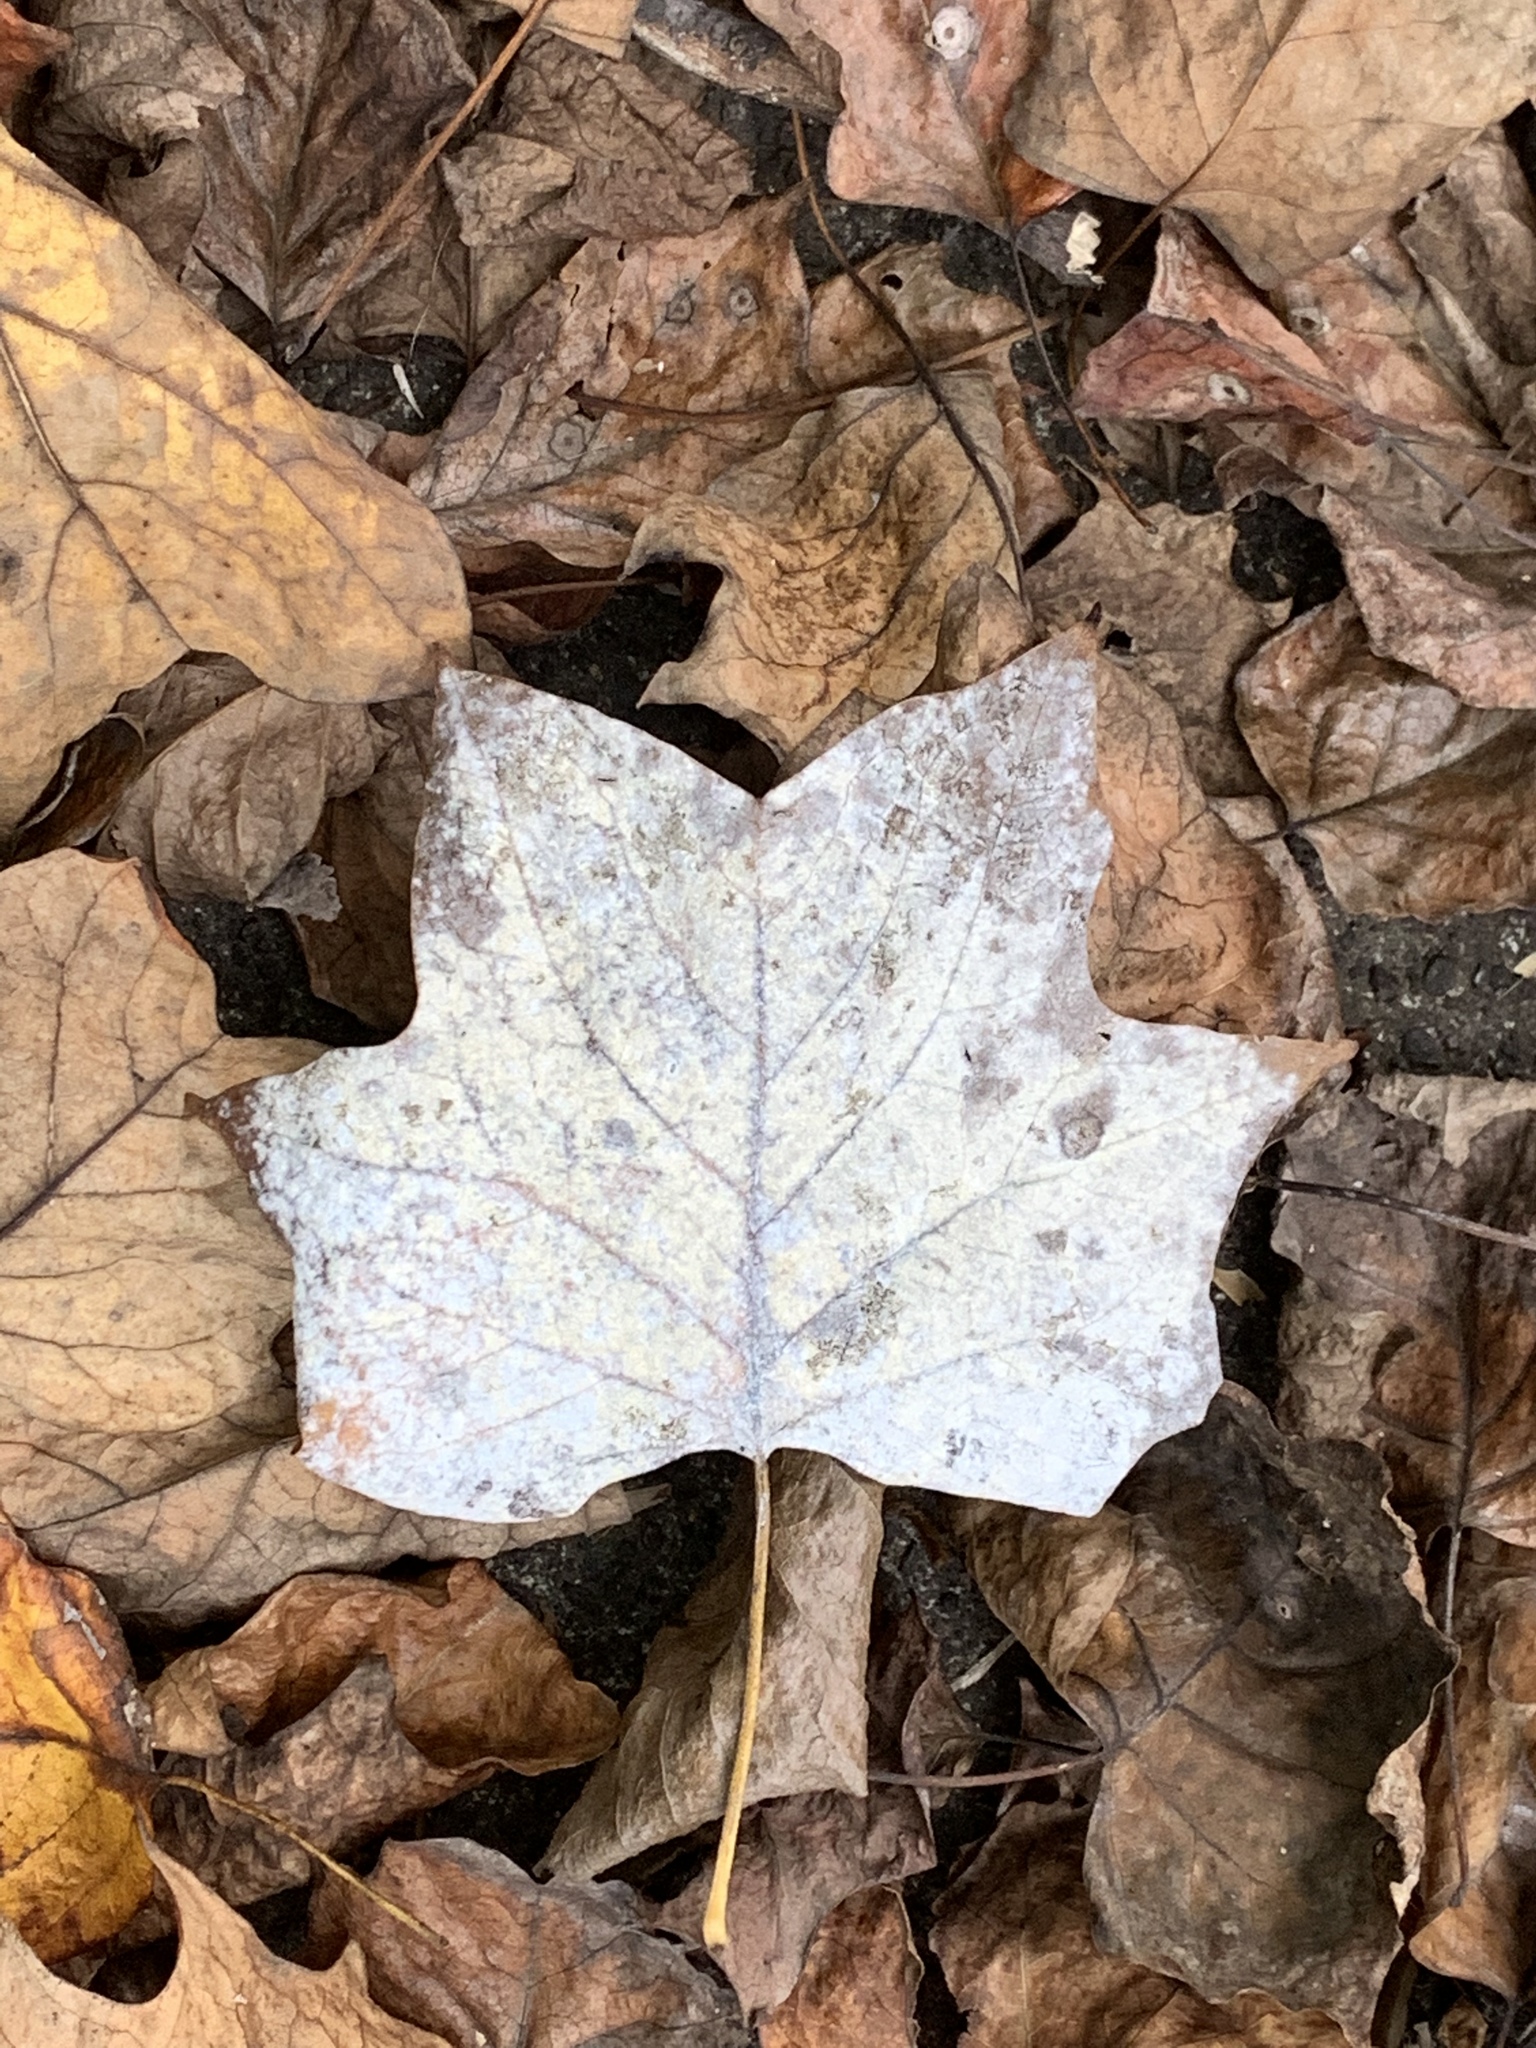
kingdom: Plantae
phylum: Tracheophyta
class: Magnoliopsida
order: Magnoliales
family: Magnoliaceae
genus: Liriodendron
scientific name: Liriodendron tulipifera
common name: Tulip tree
